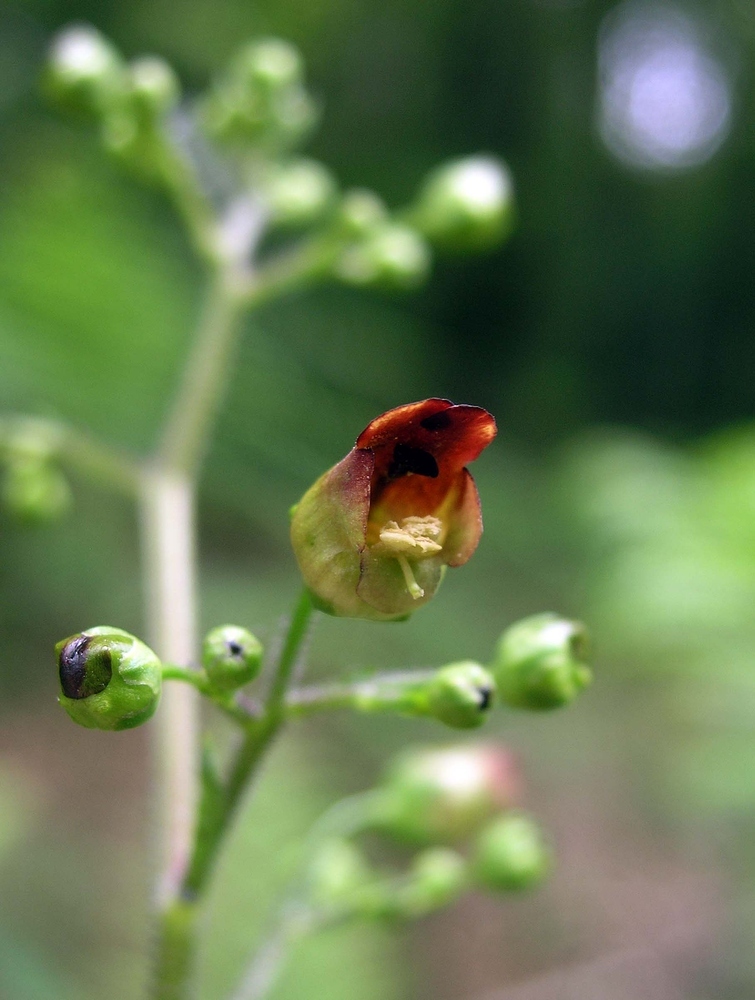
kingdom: Plantae
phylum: Tracheophyta
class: Magnoliopsida
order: Lamiales
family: Scrophulariaceae
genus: Scrophularia
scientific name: Scrophularia nodosa
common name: Common figwort
